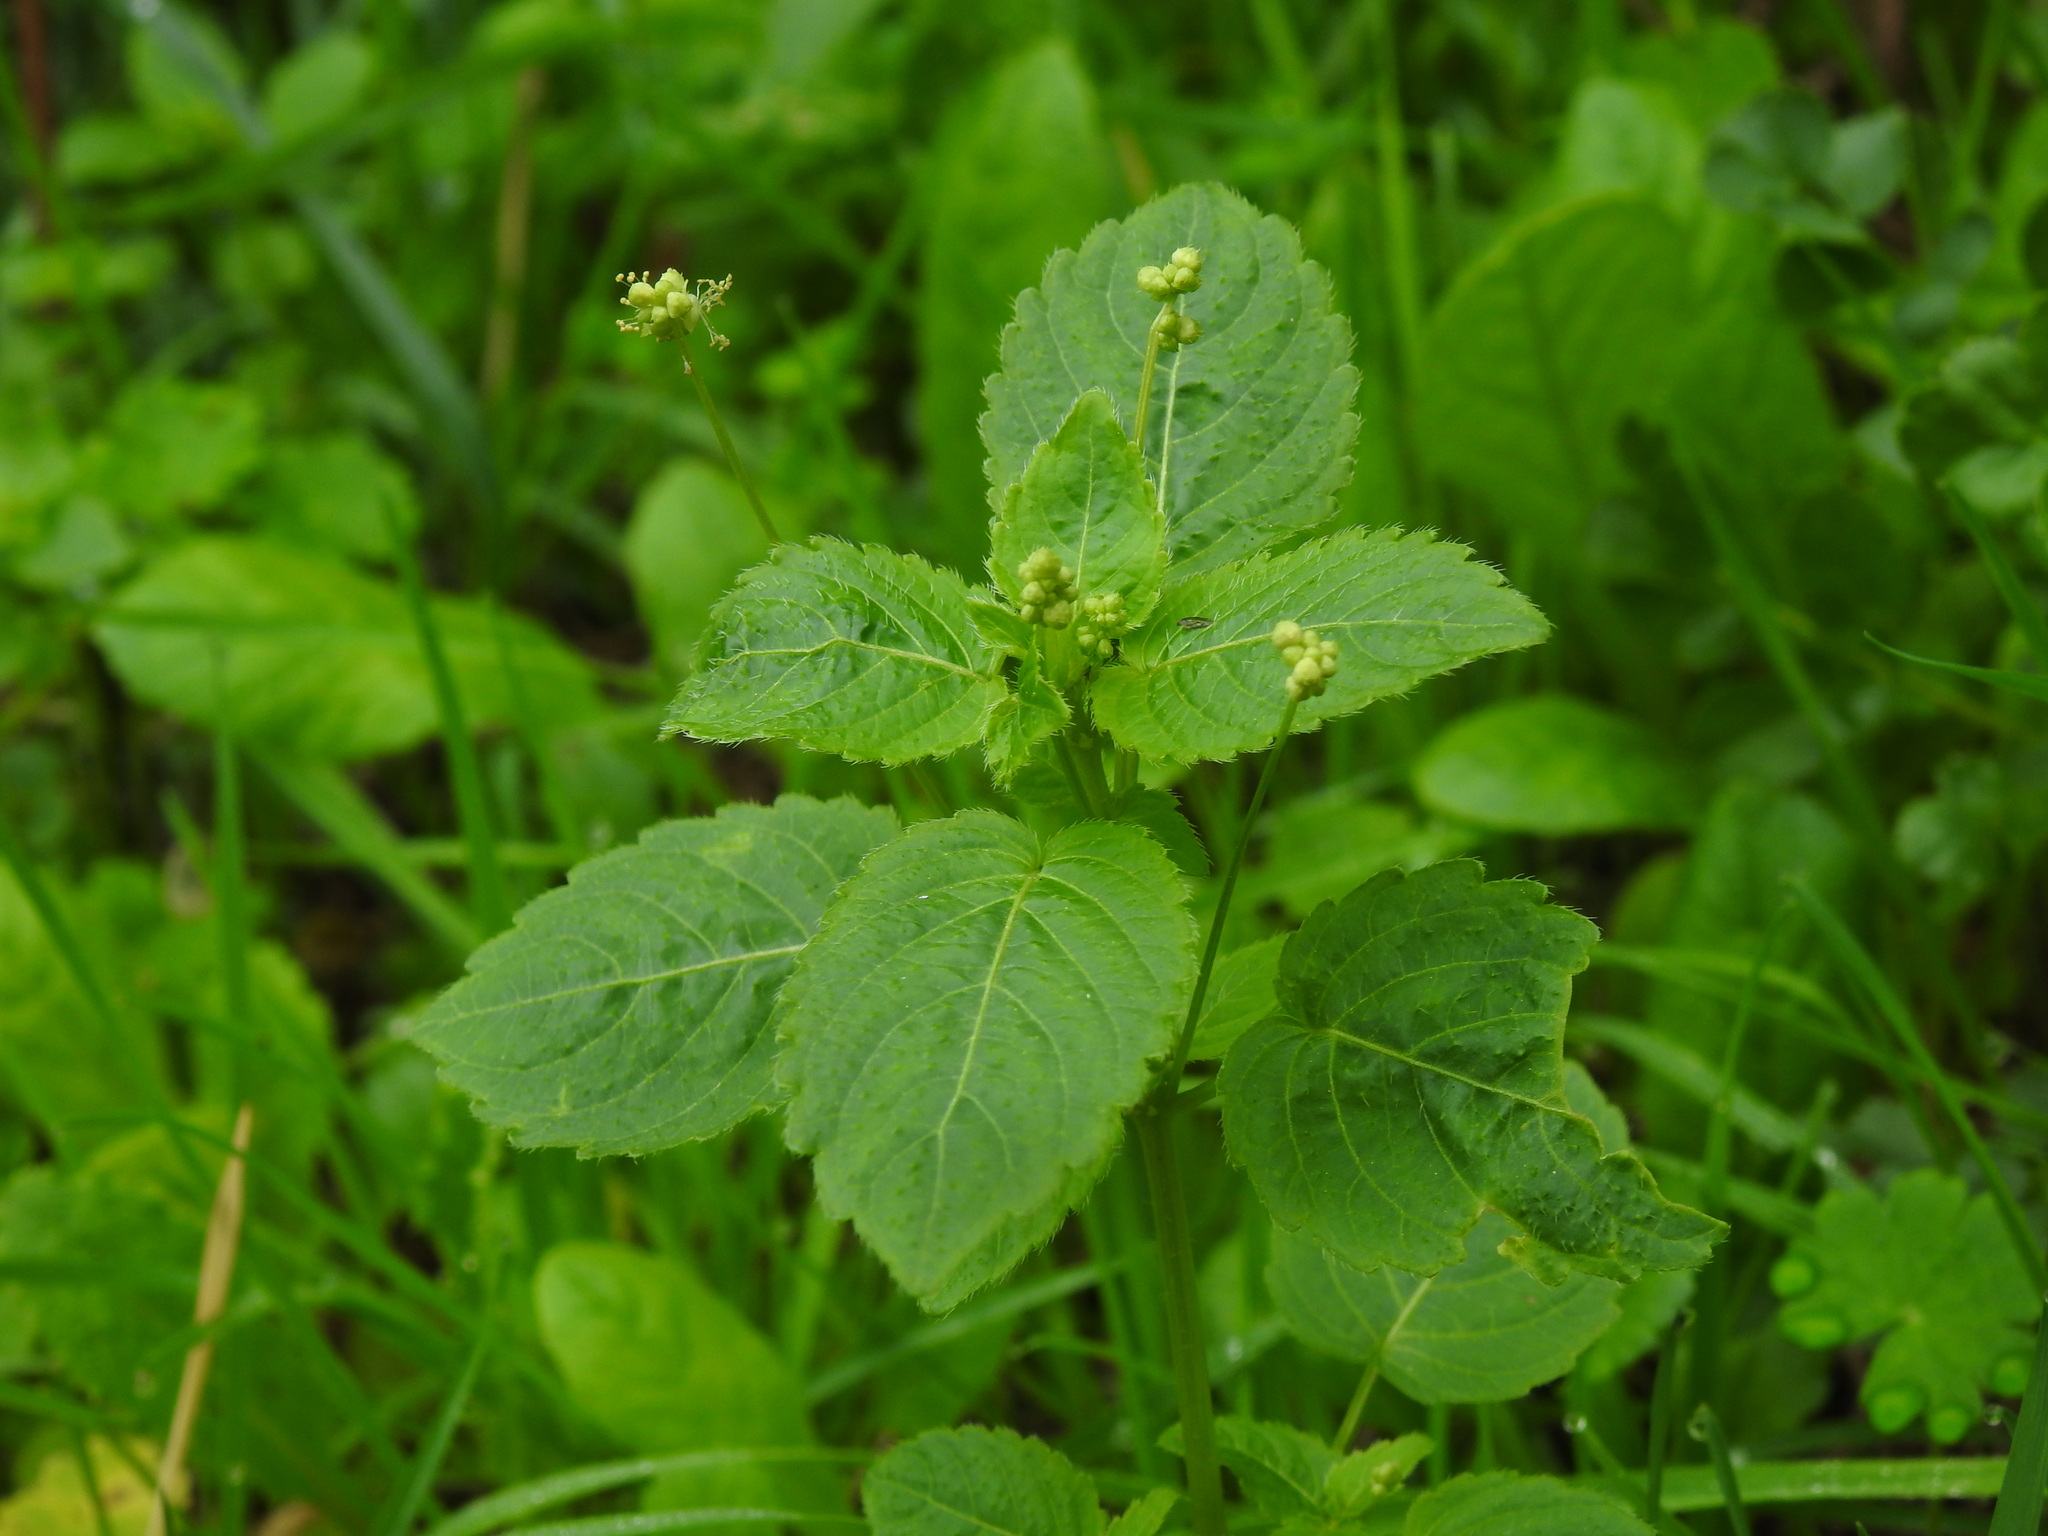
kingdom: Plantae
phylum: Tracheophyta
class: Magnoliopsida
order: Malpighiales
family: Euphorbiaceae
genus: Mercurialis
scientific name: Mercurialis annua
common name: Annual mercury
